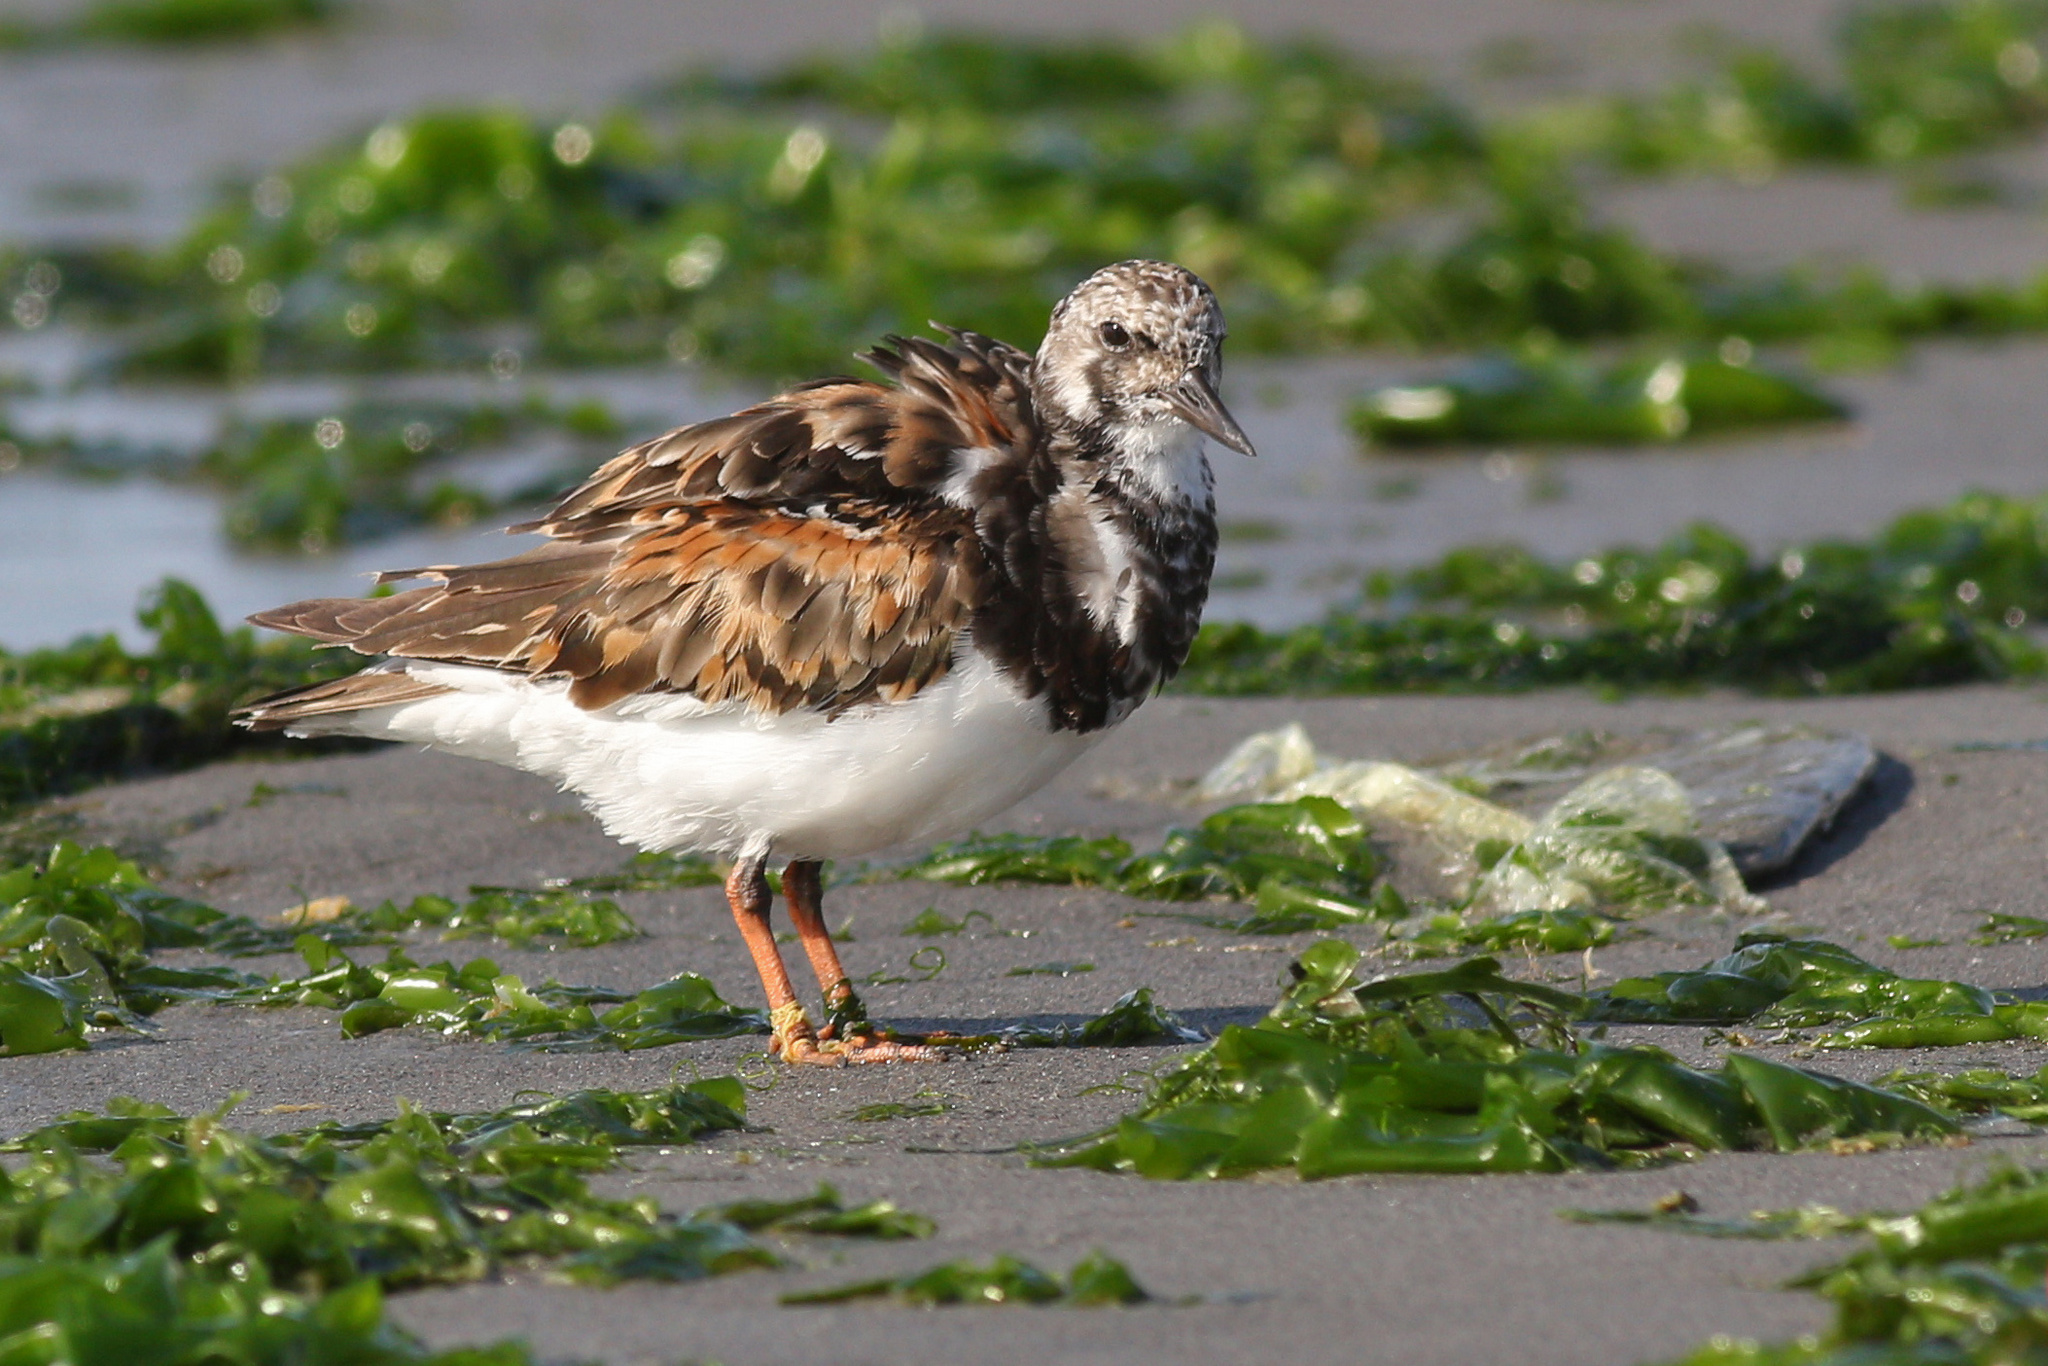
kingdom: Animalia
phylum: Chordata
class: Aves
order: Charadriiformes
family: Scolopacidae
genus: Arenaria
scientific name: Arenaria interpres
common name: Ruddy turnstone
